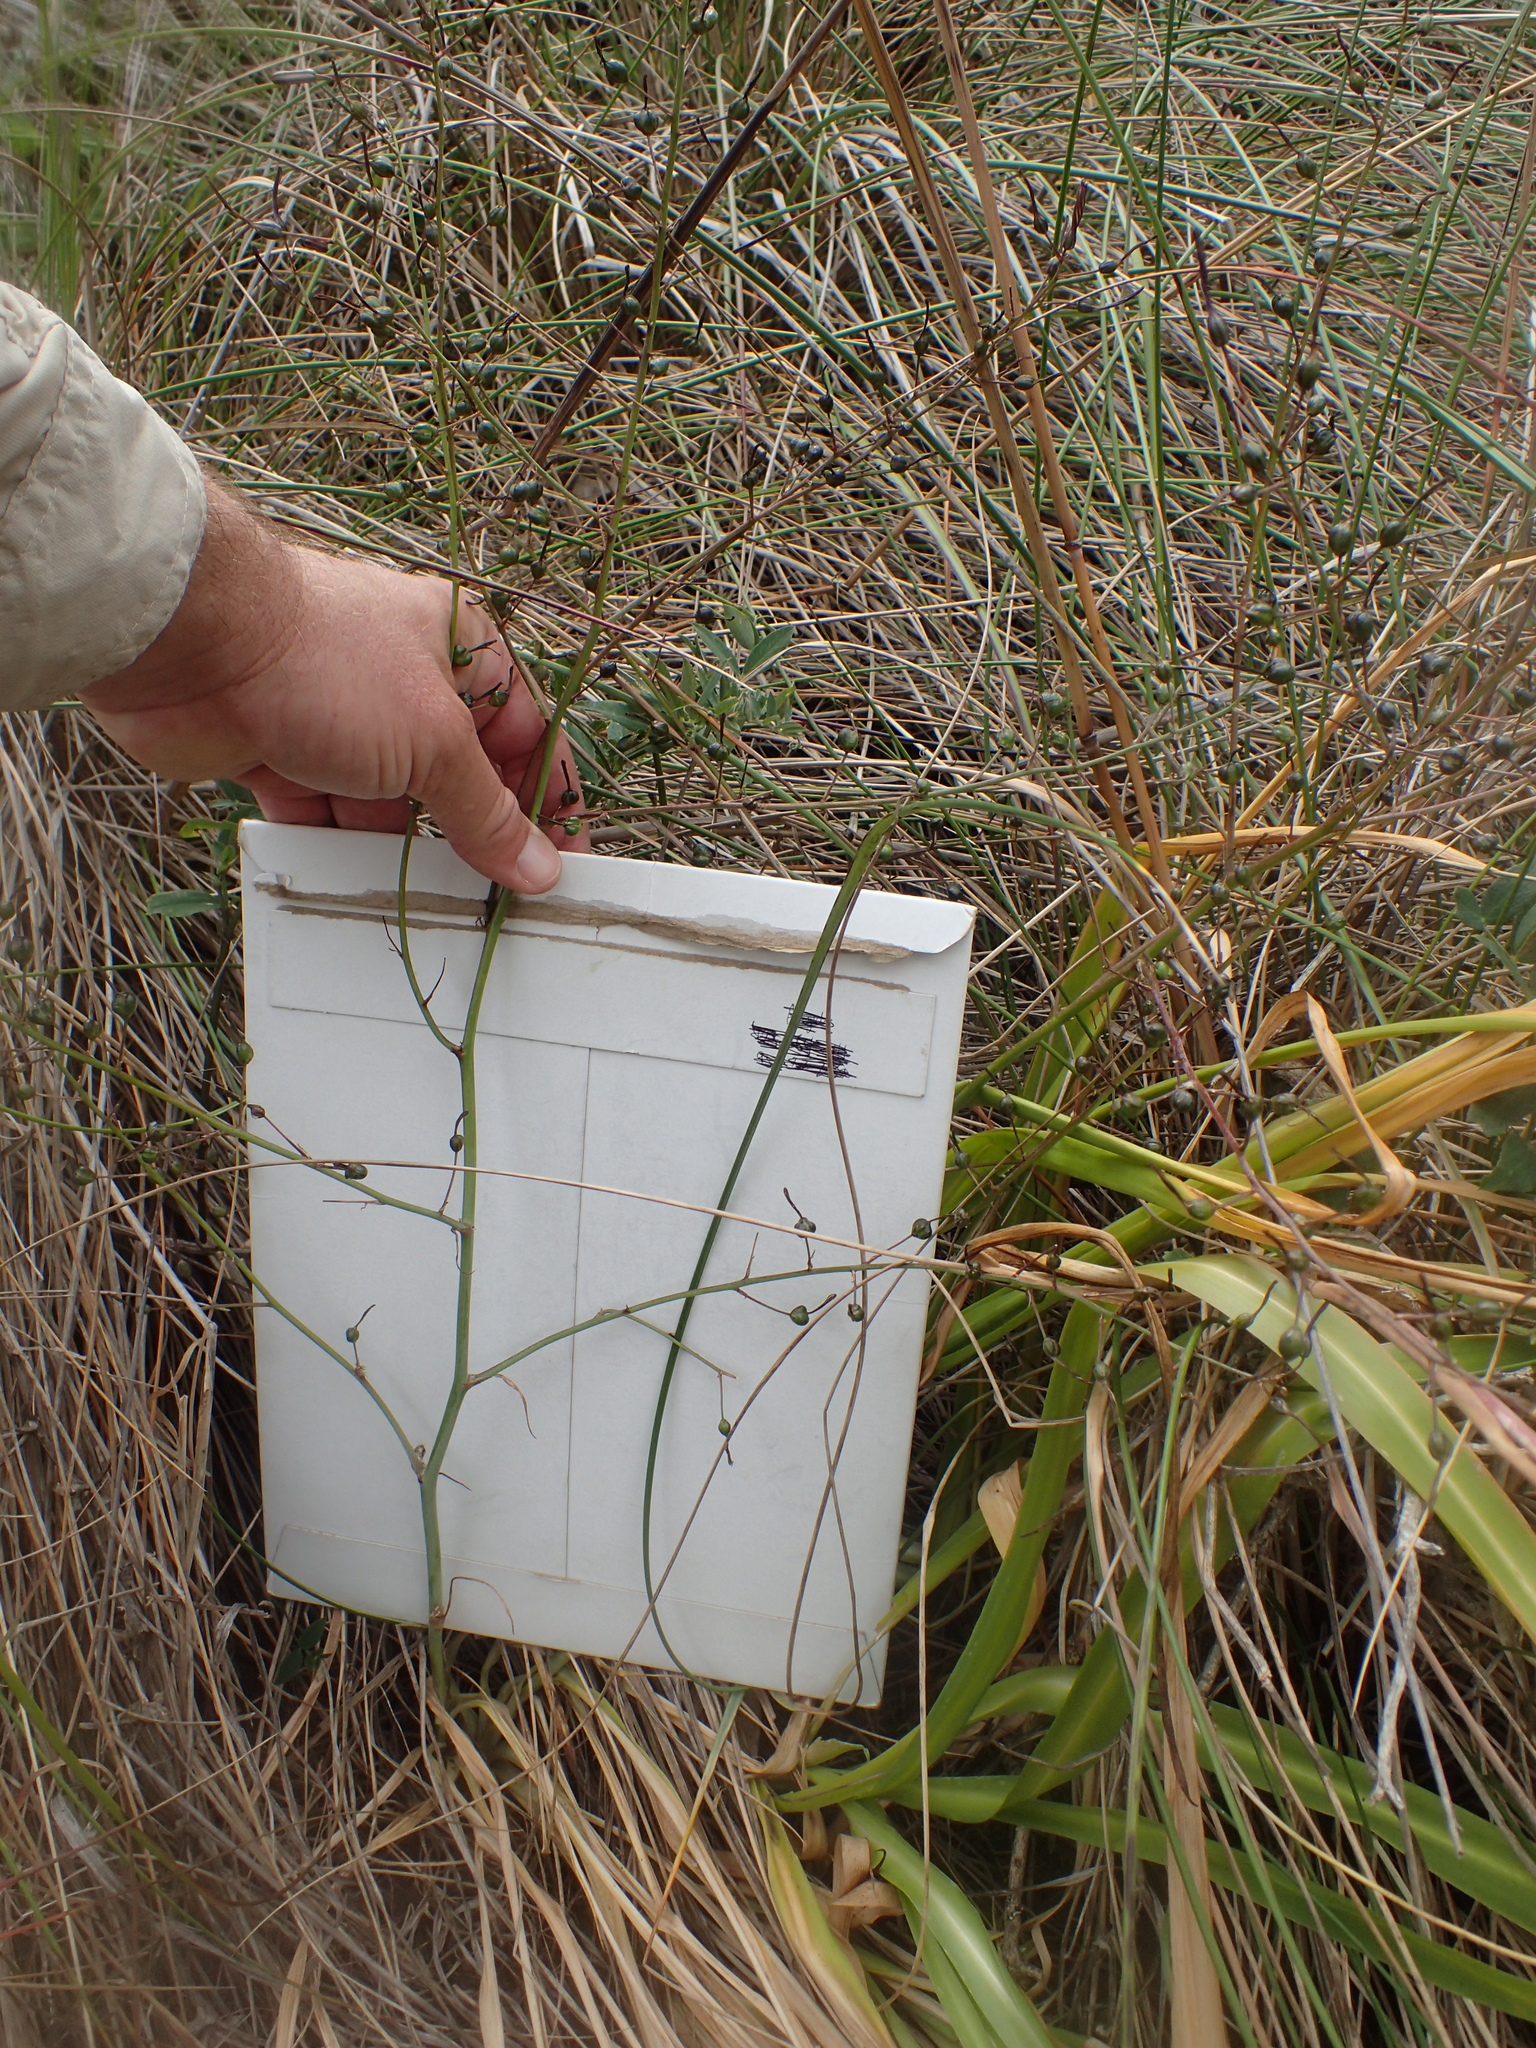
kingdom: Plantae
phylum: Tracheophyta
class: Liliopsida
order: Asparagales
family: Asparagaceae
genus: Chlorogalum
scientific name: Chlorogalum pomeridianum
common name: Amole
